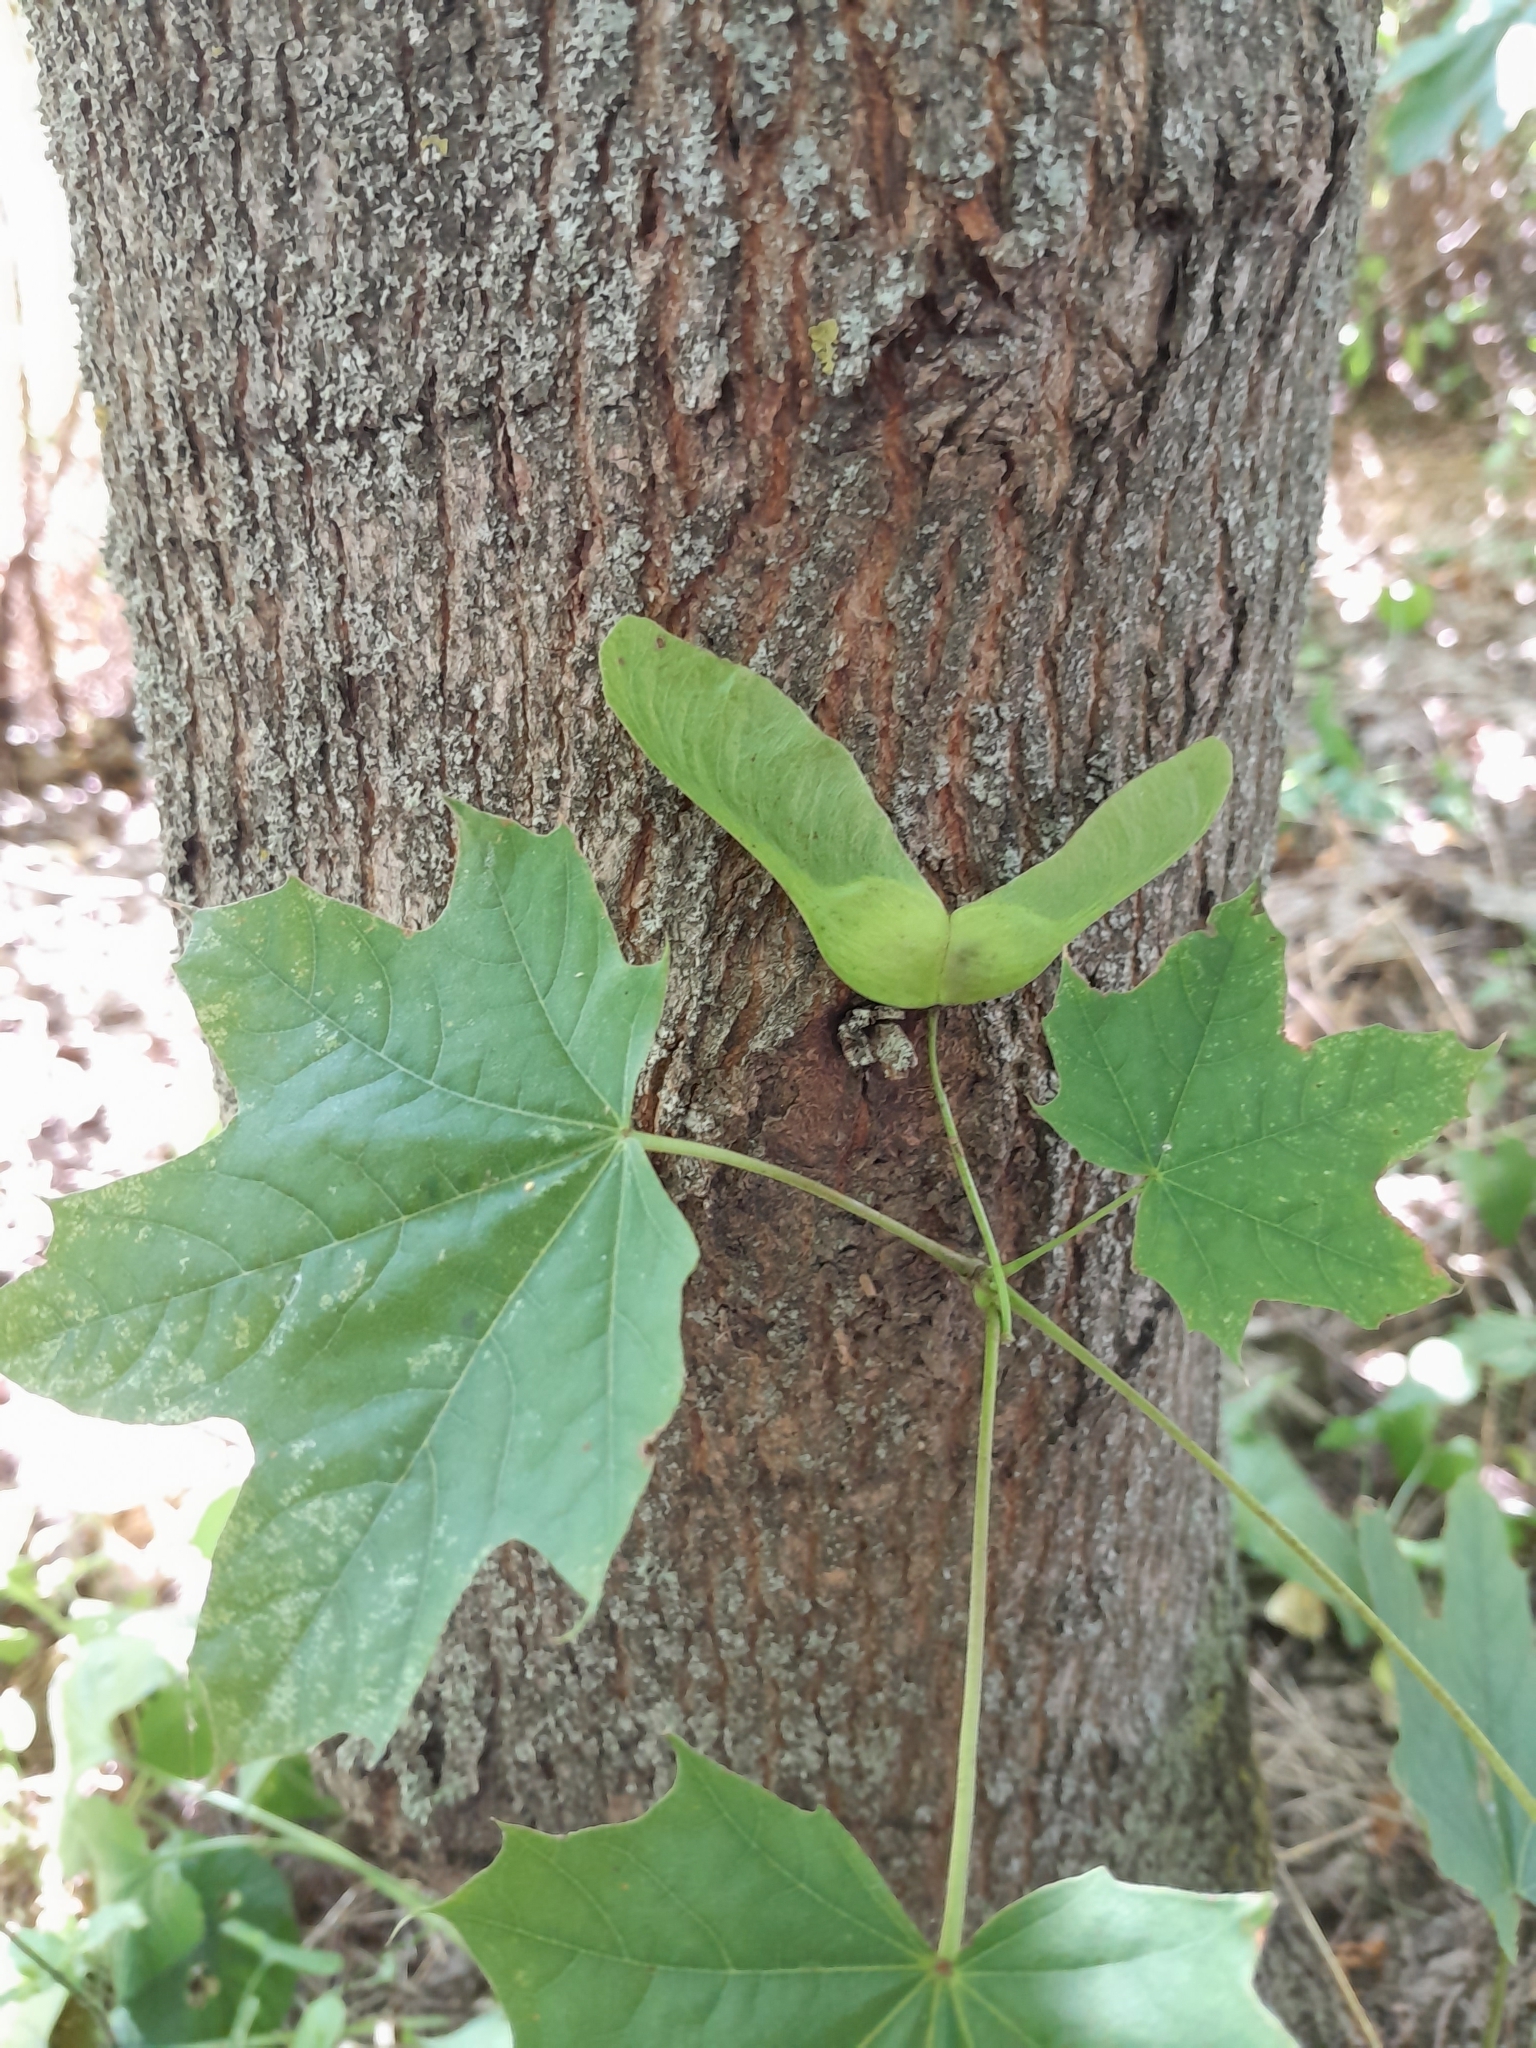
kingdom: Plantae
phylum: Tracheophyta
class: Magnoliopsida
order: Sapindales
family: Sapindaceae
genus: Acer
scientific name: Acer platanoides
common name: Norway maple
